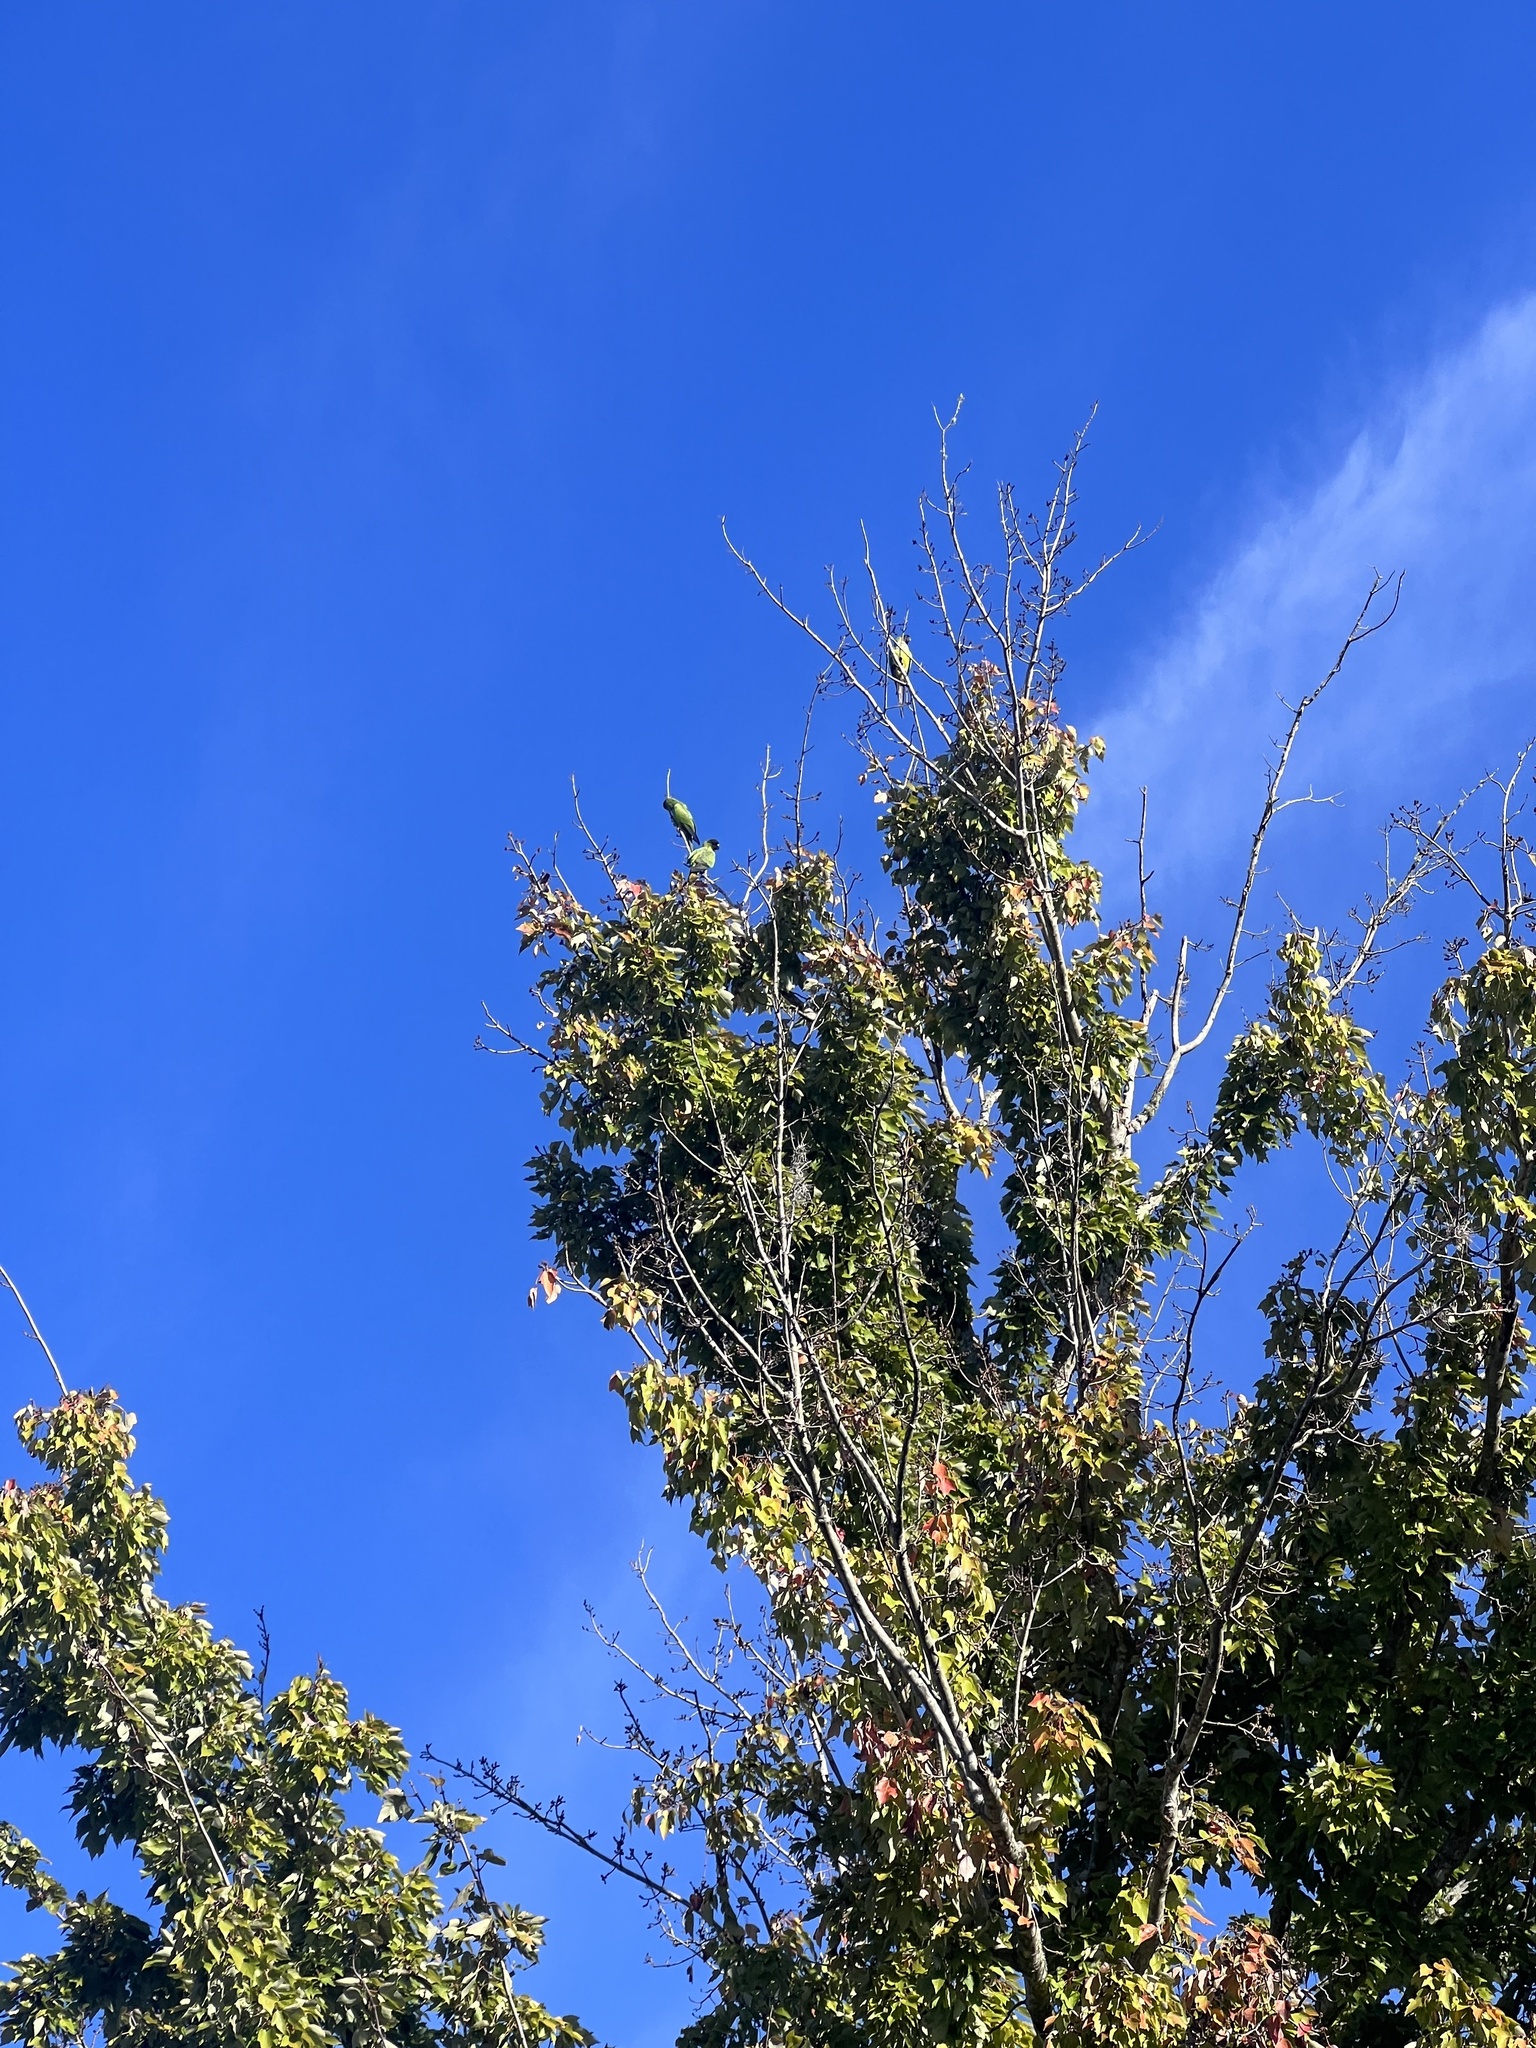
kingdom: Animalia
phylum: Chordata
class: Aves
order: Psittaciformes
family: Psittacidae
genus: Nandayus
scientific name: Nandayus nenday
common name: Nanday parakeet
